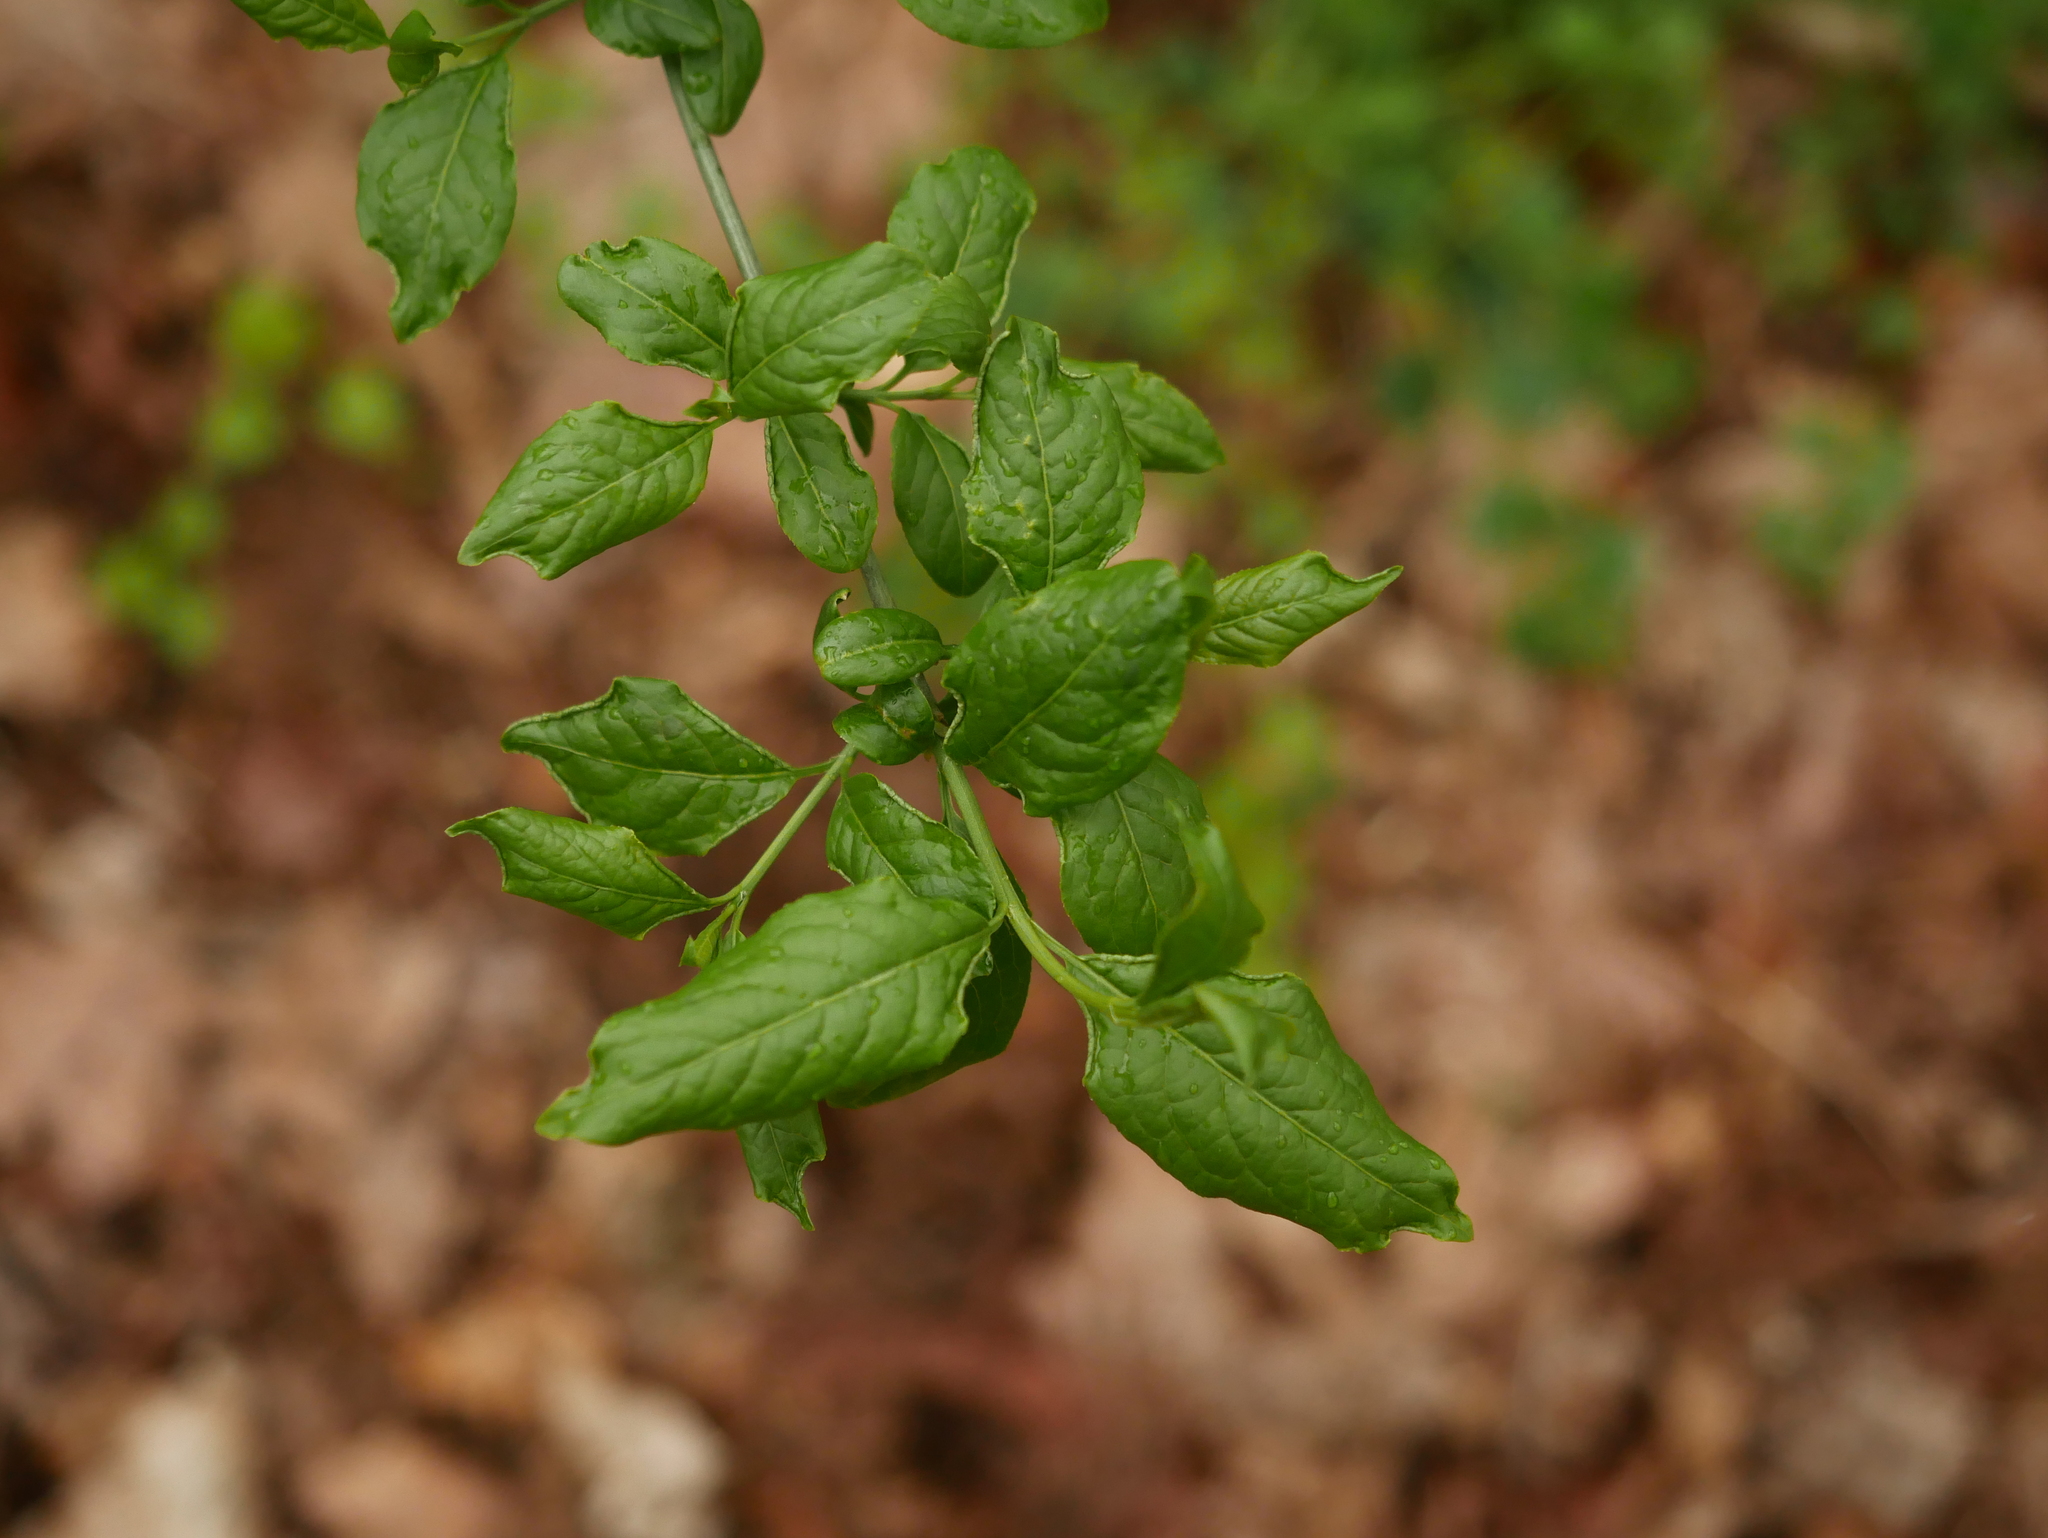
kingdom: Plantae
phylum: Tracheophyta
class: Magnoliopsida
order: Celastrales
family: Celastraceae
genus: Euonymus
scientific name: Euonymus europaeus
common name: Spindle
